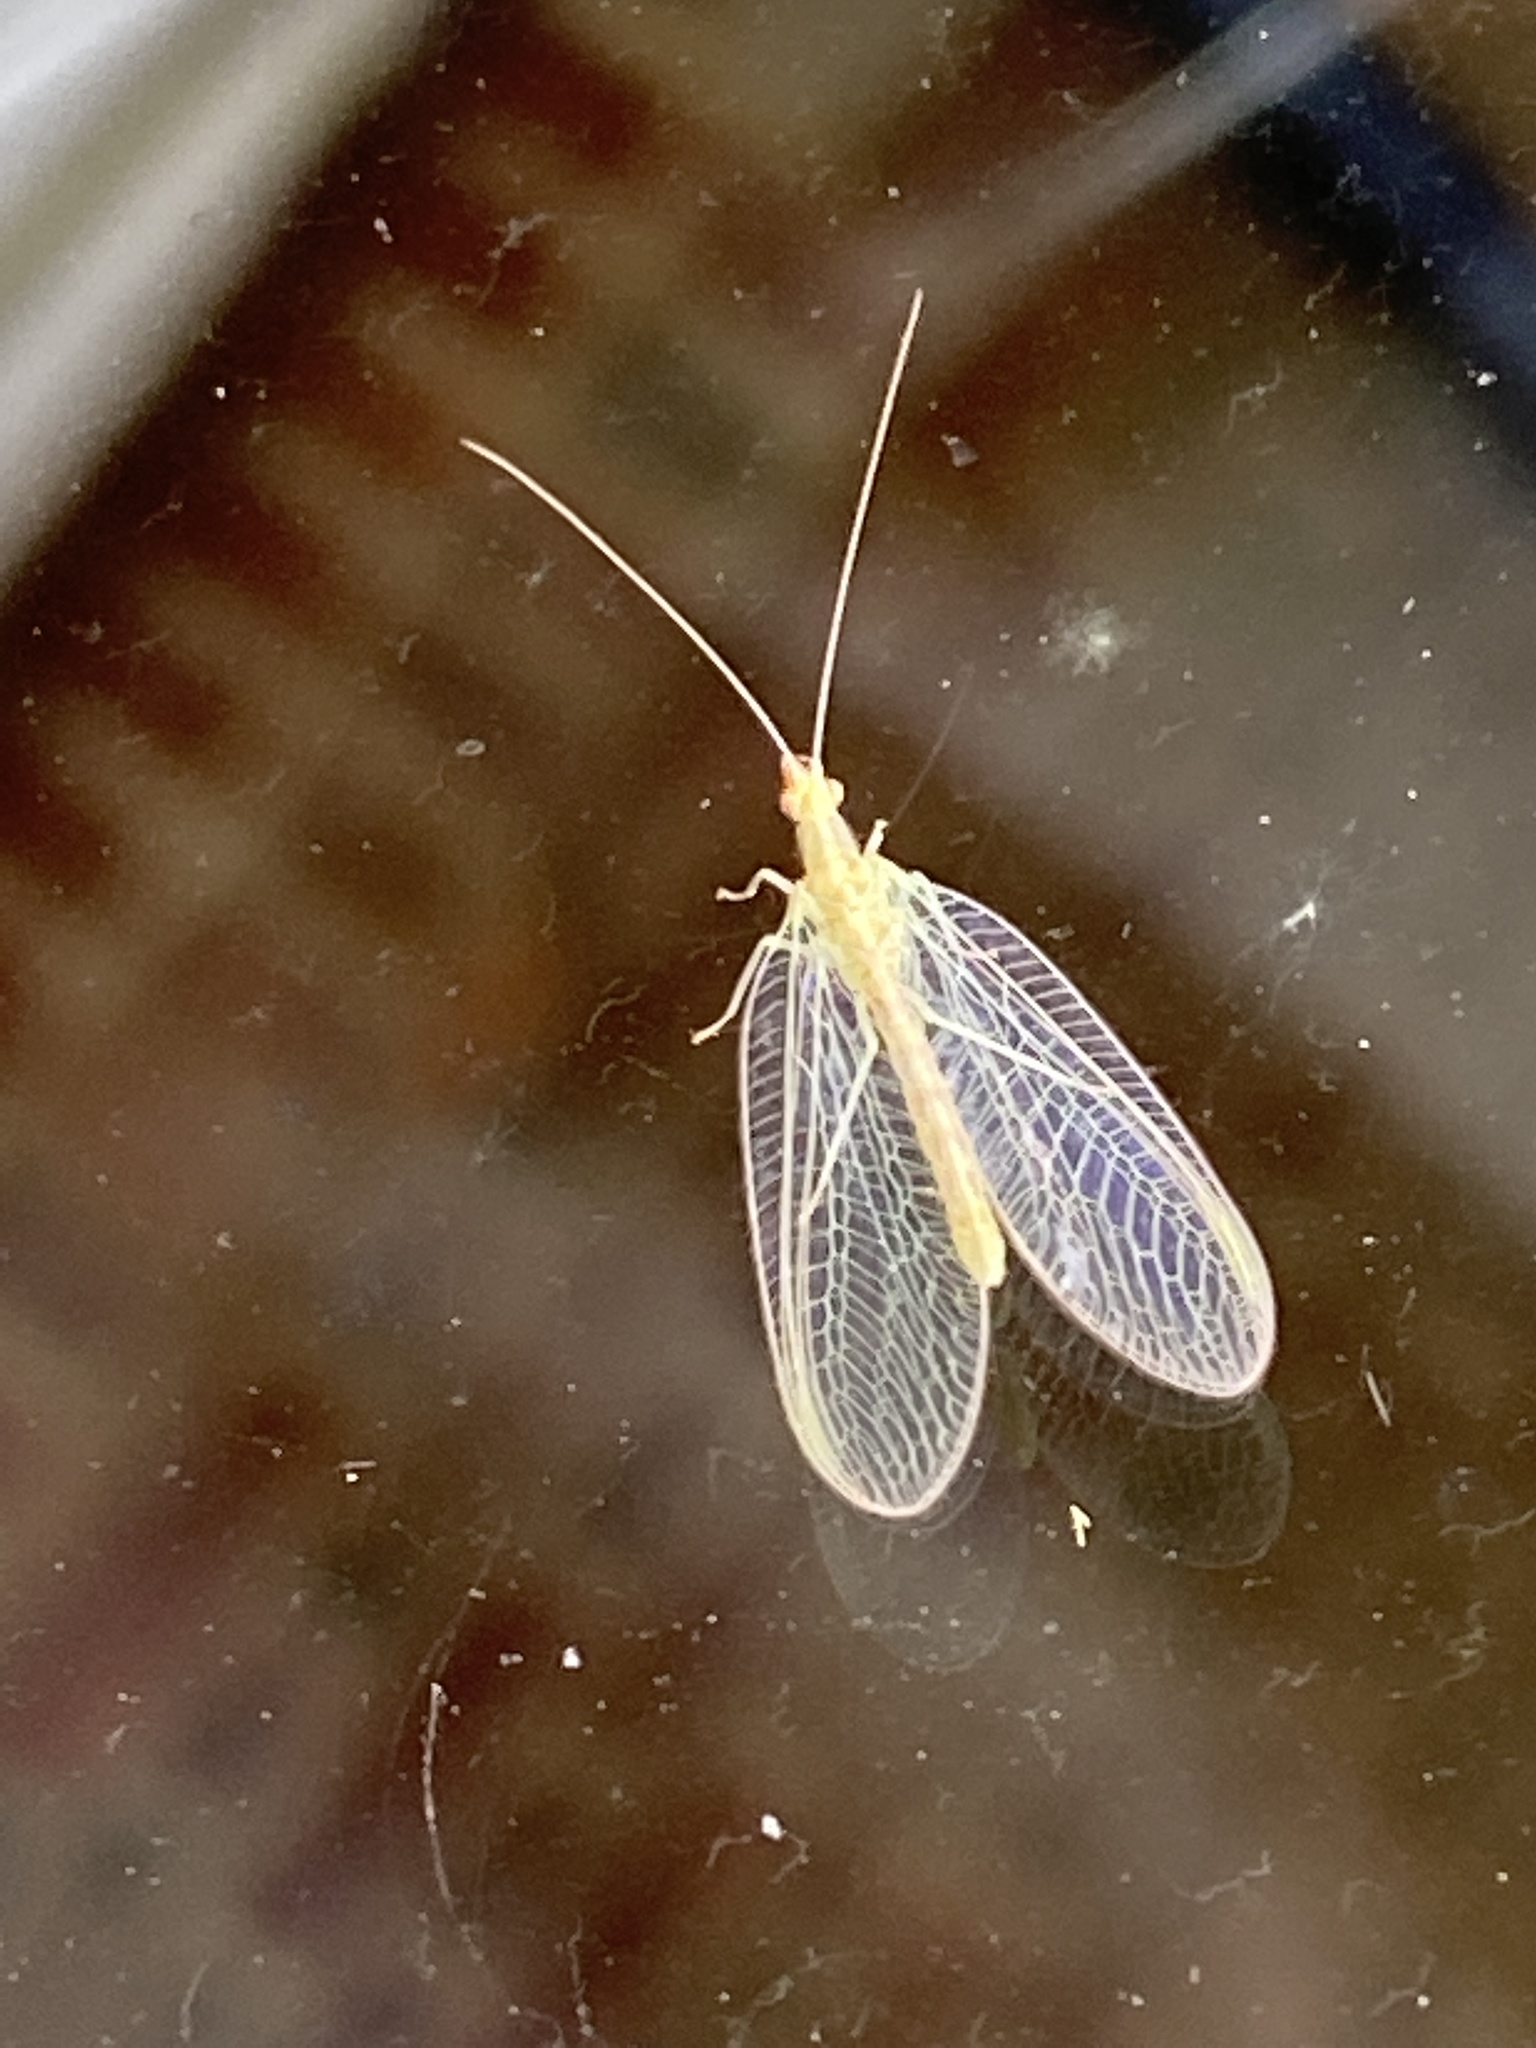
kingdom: Animalia
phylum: Arthropoda
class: Insecta
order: Neuroptera
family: Chrysopidae
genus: Chrysoperla
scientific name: Chrysoperla
